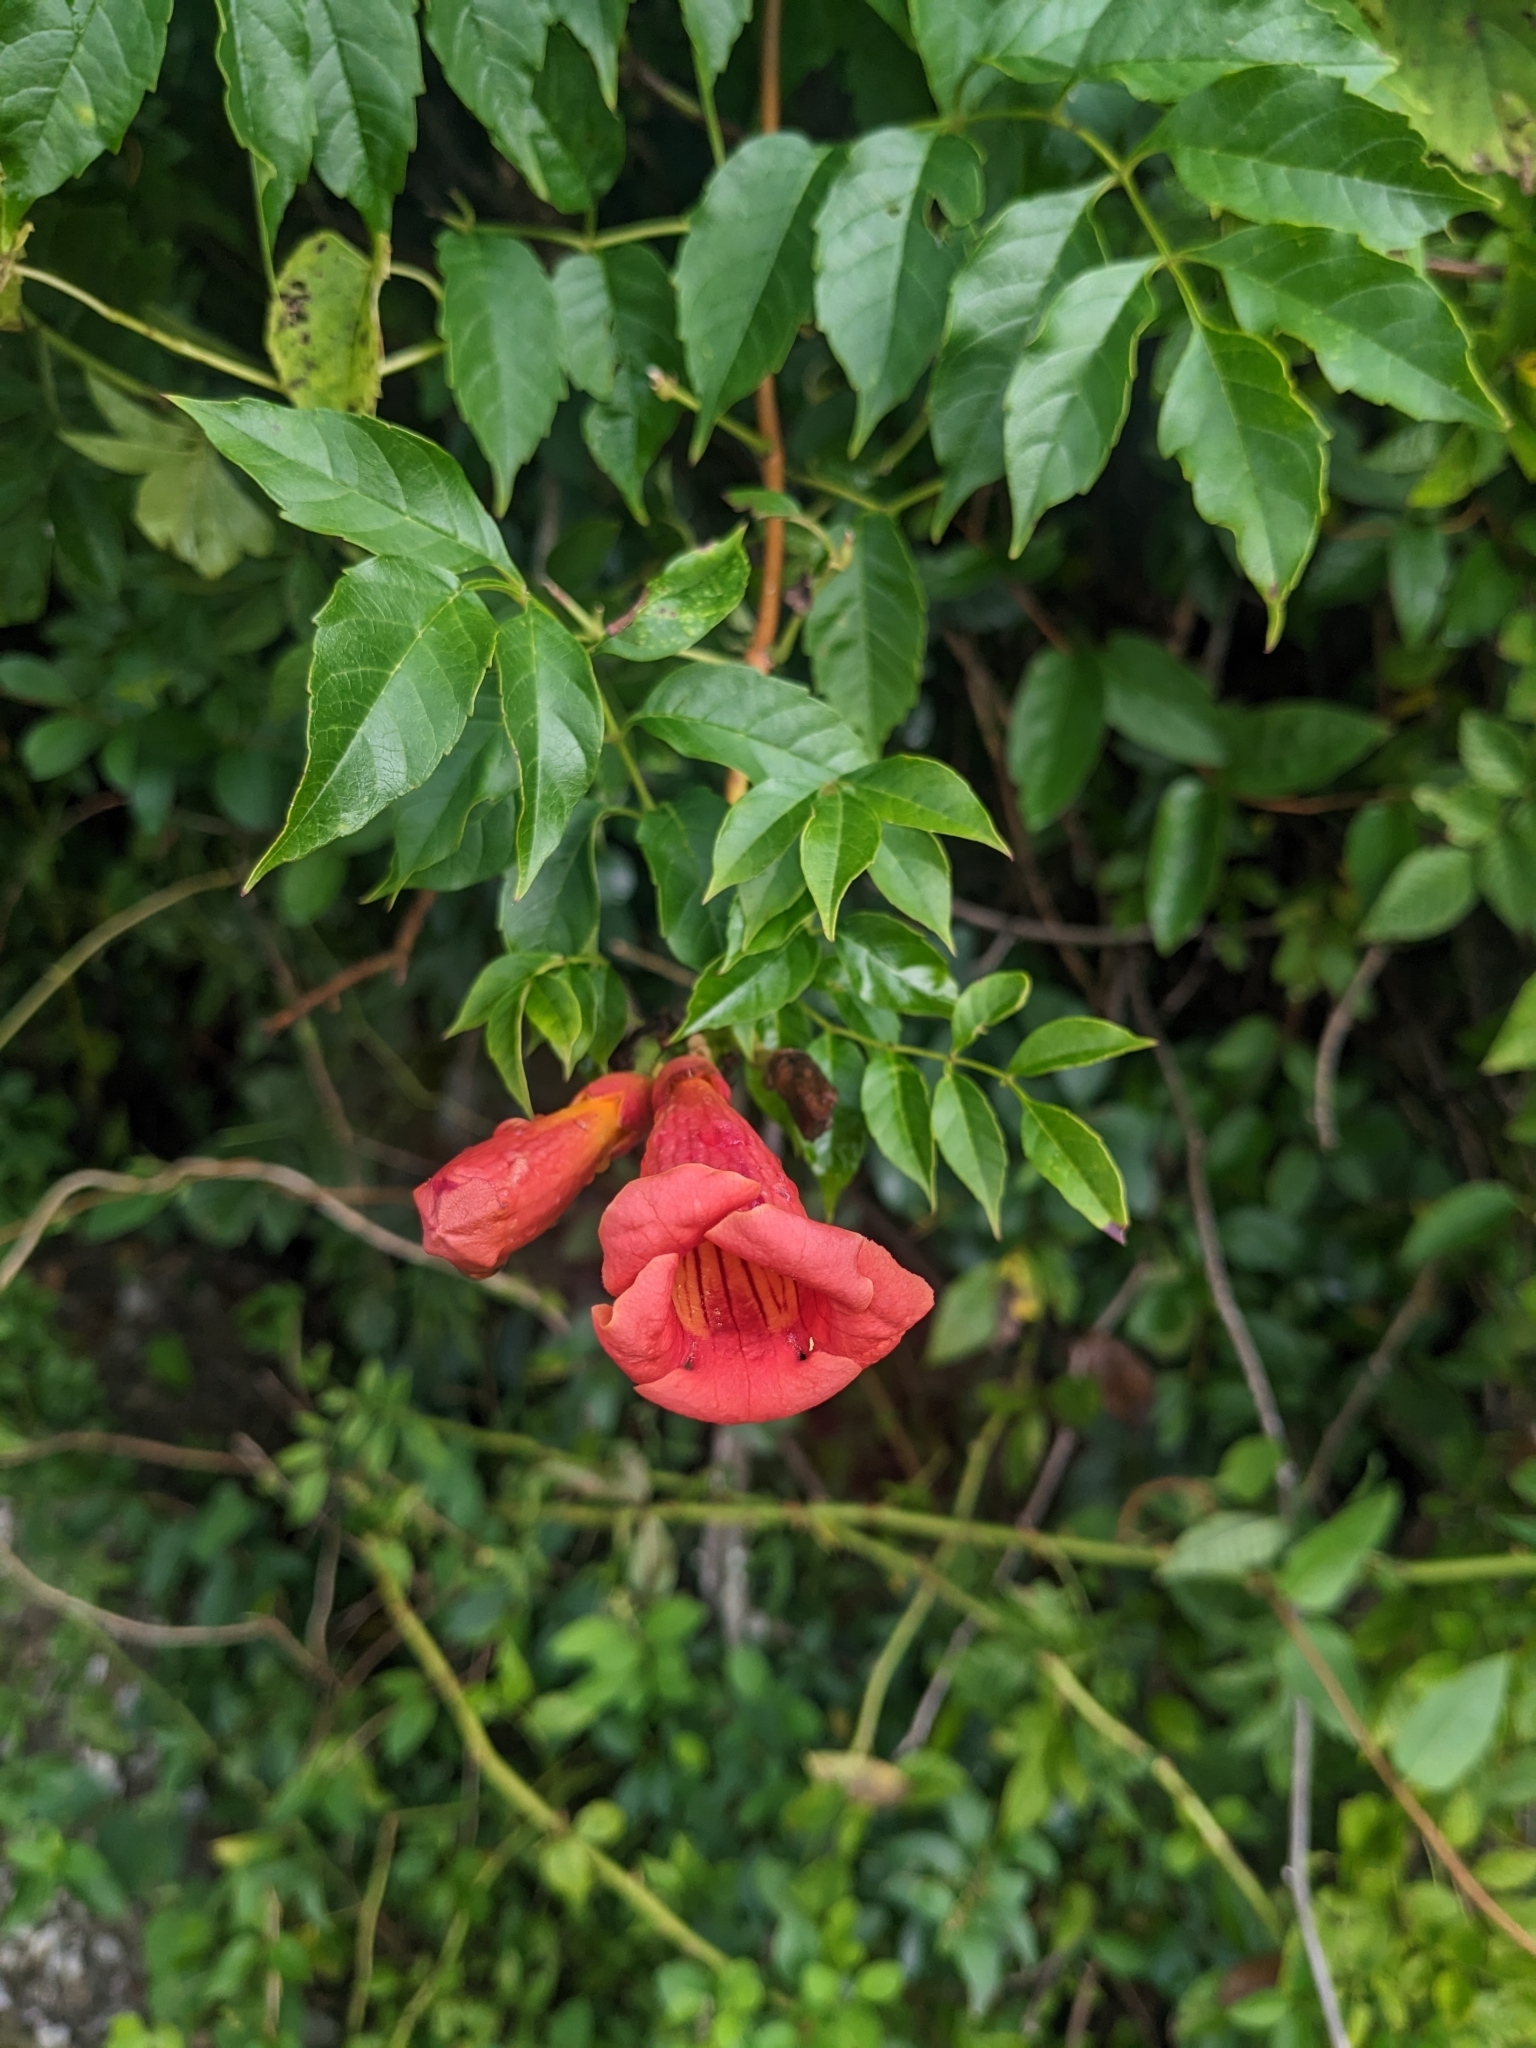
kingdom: Plantae
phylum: Tracheophyta
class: Magnoliopsida
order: Lamiales
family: Bignoniaceae
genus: Campsis
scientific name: Campsis radicans
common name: Trumpet-creeper
